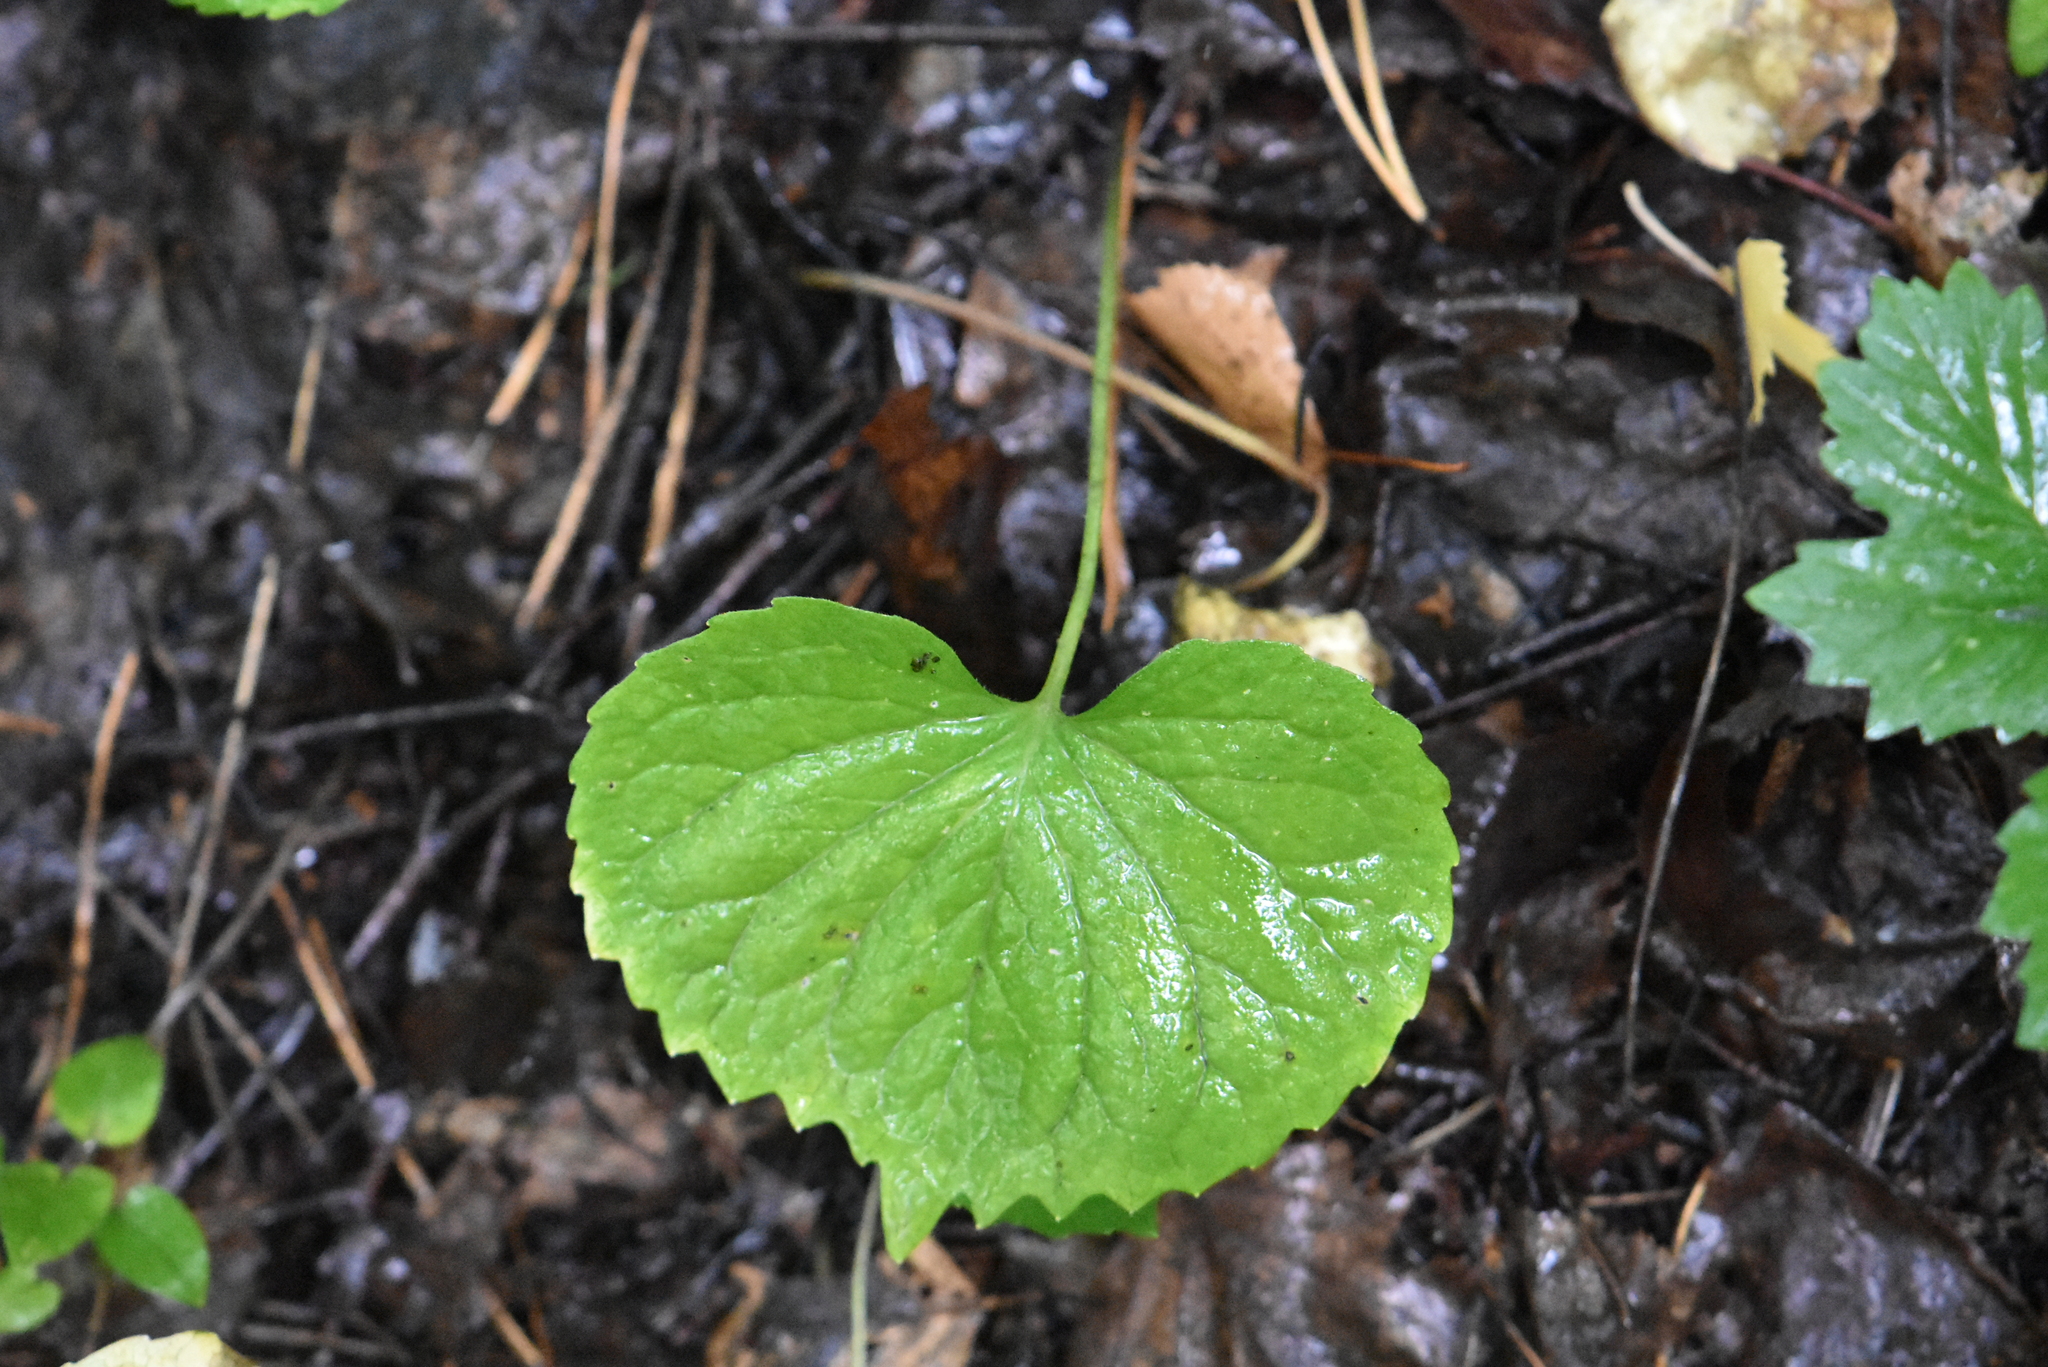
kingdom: Plantae
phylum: Tracheophyta
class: Magnoliopsida
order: Malpighiales
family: Violaceae
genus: Viola
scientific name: Viola uniflora
